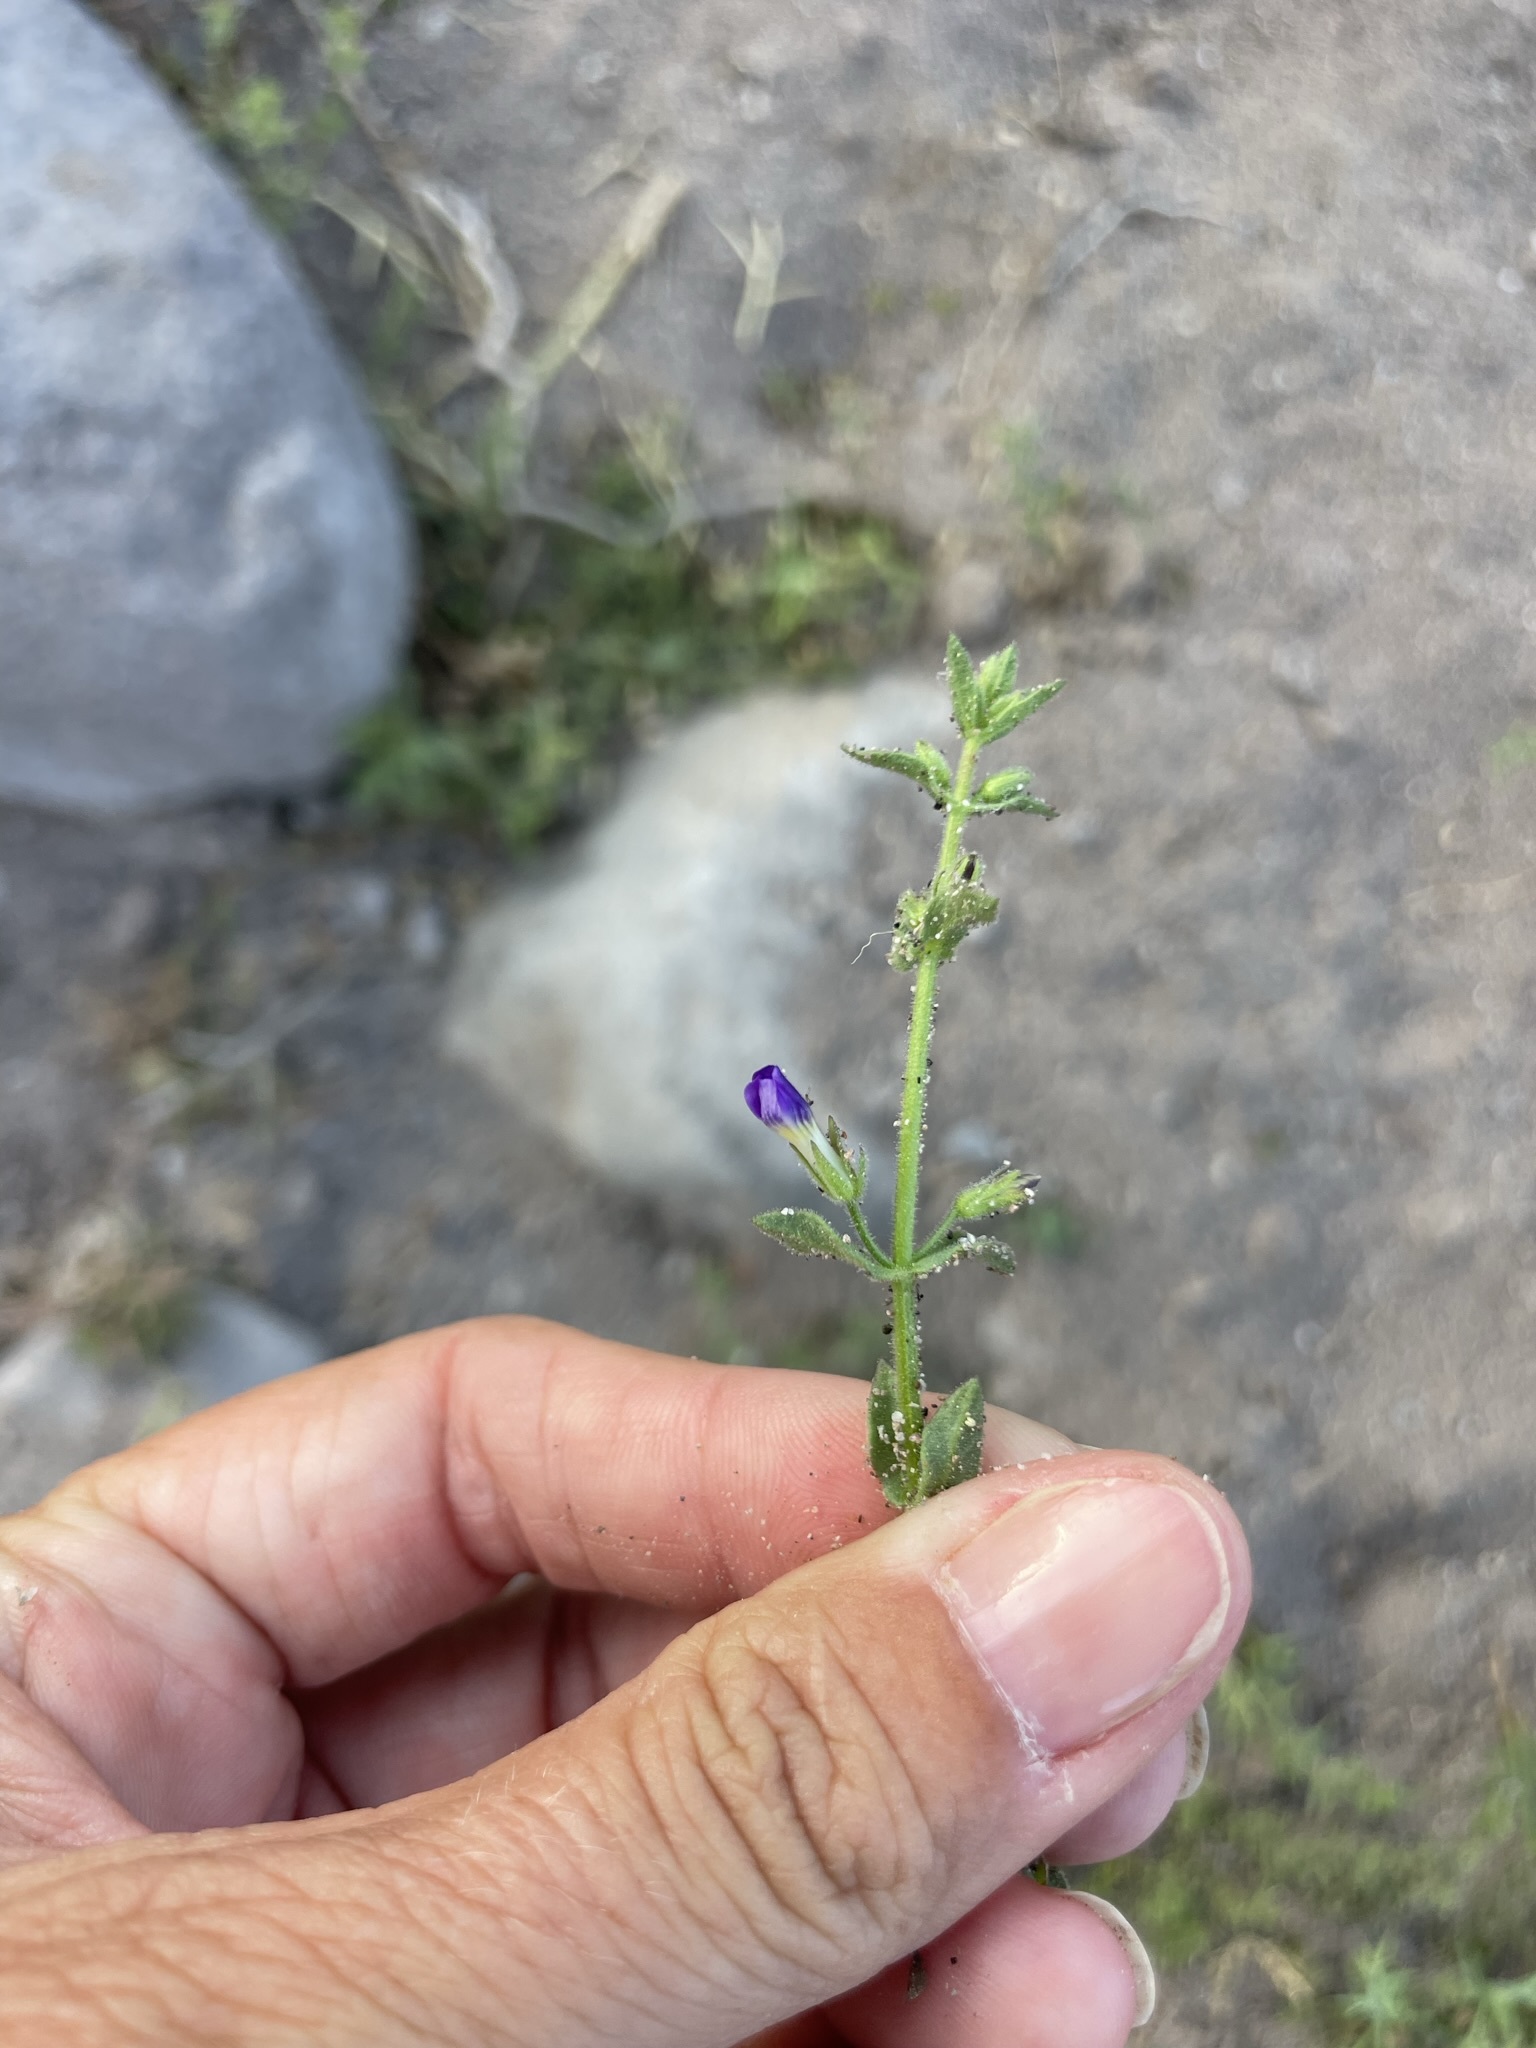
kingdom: Plantae
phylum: Tracheophyta
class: Magnoliopsida
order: Lamiales
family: Plantaginaceae
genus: Stemodia
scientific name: Stemodia durantifolia
